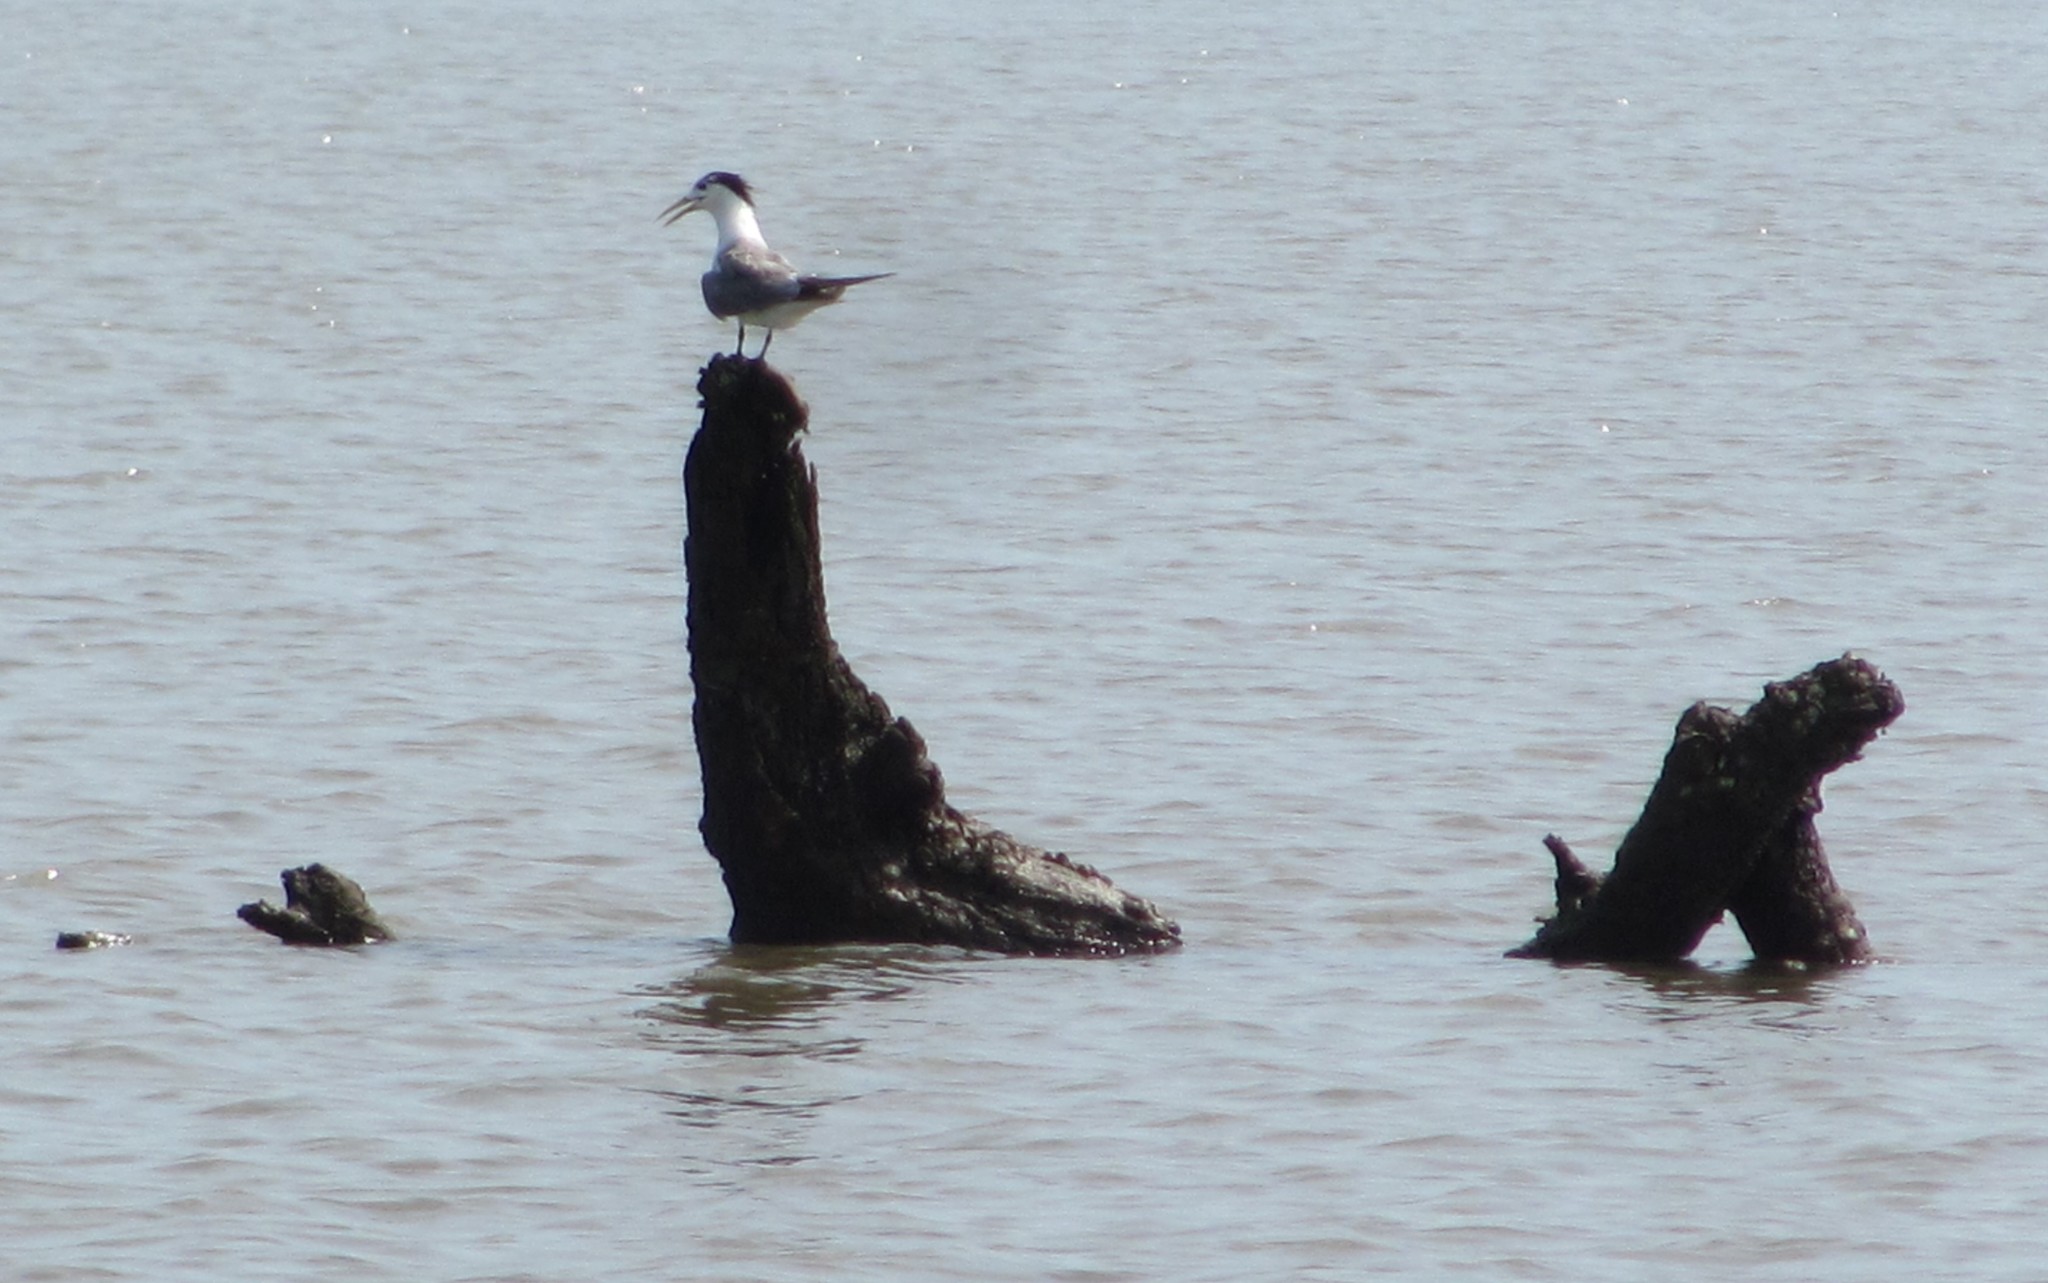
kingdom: Animalia
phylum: Chordata
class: Aves
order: Charadriiformes
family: Laridae
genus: Thalasseus
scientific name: Thalasseus bergii
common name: Greater crested tern
